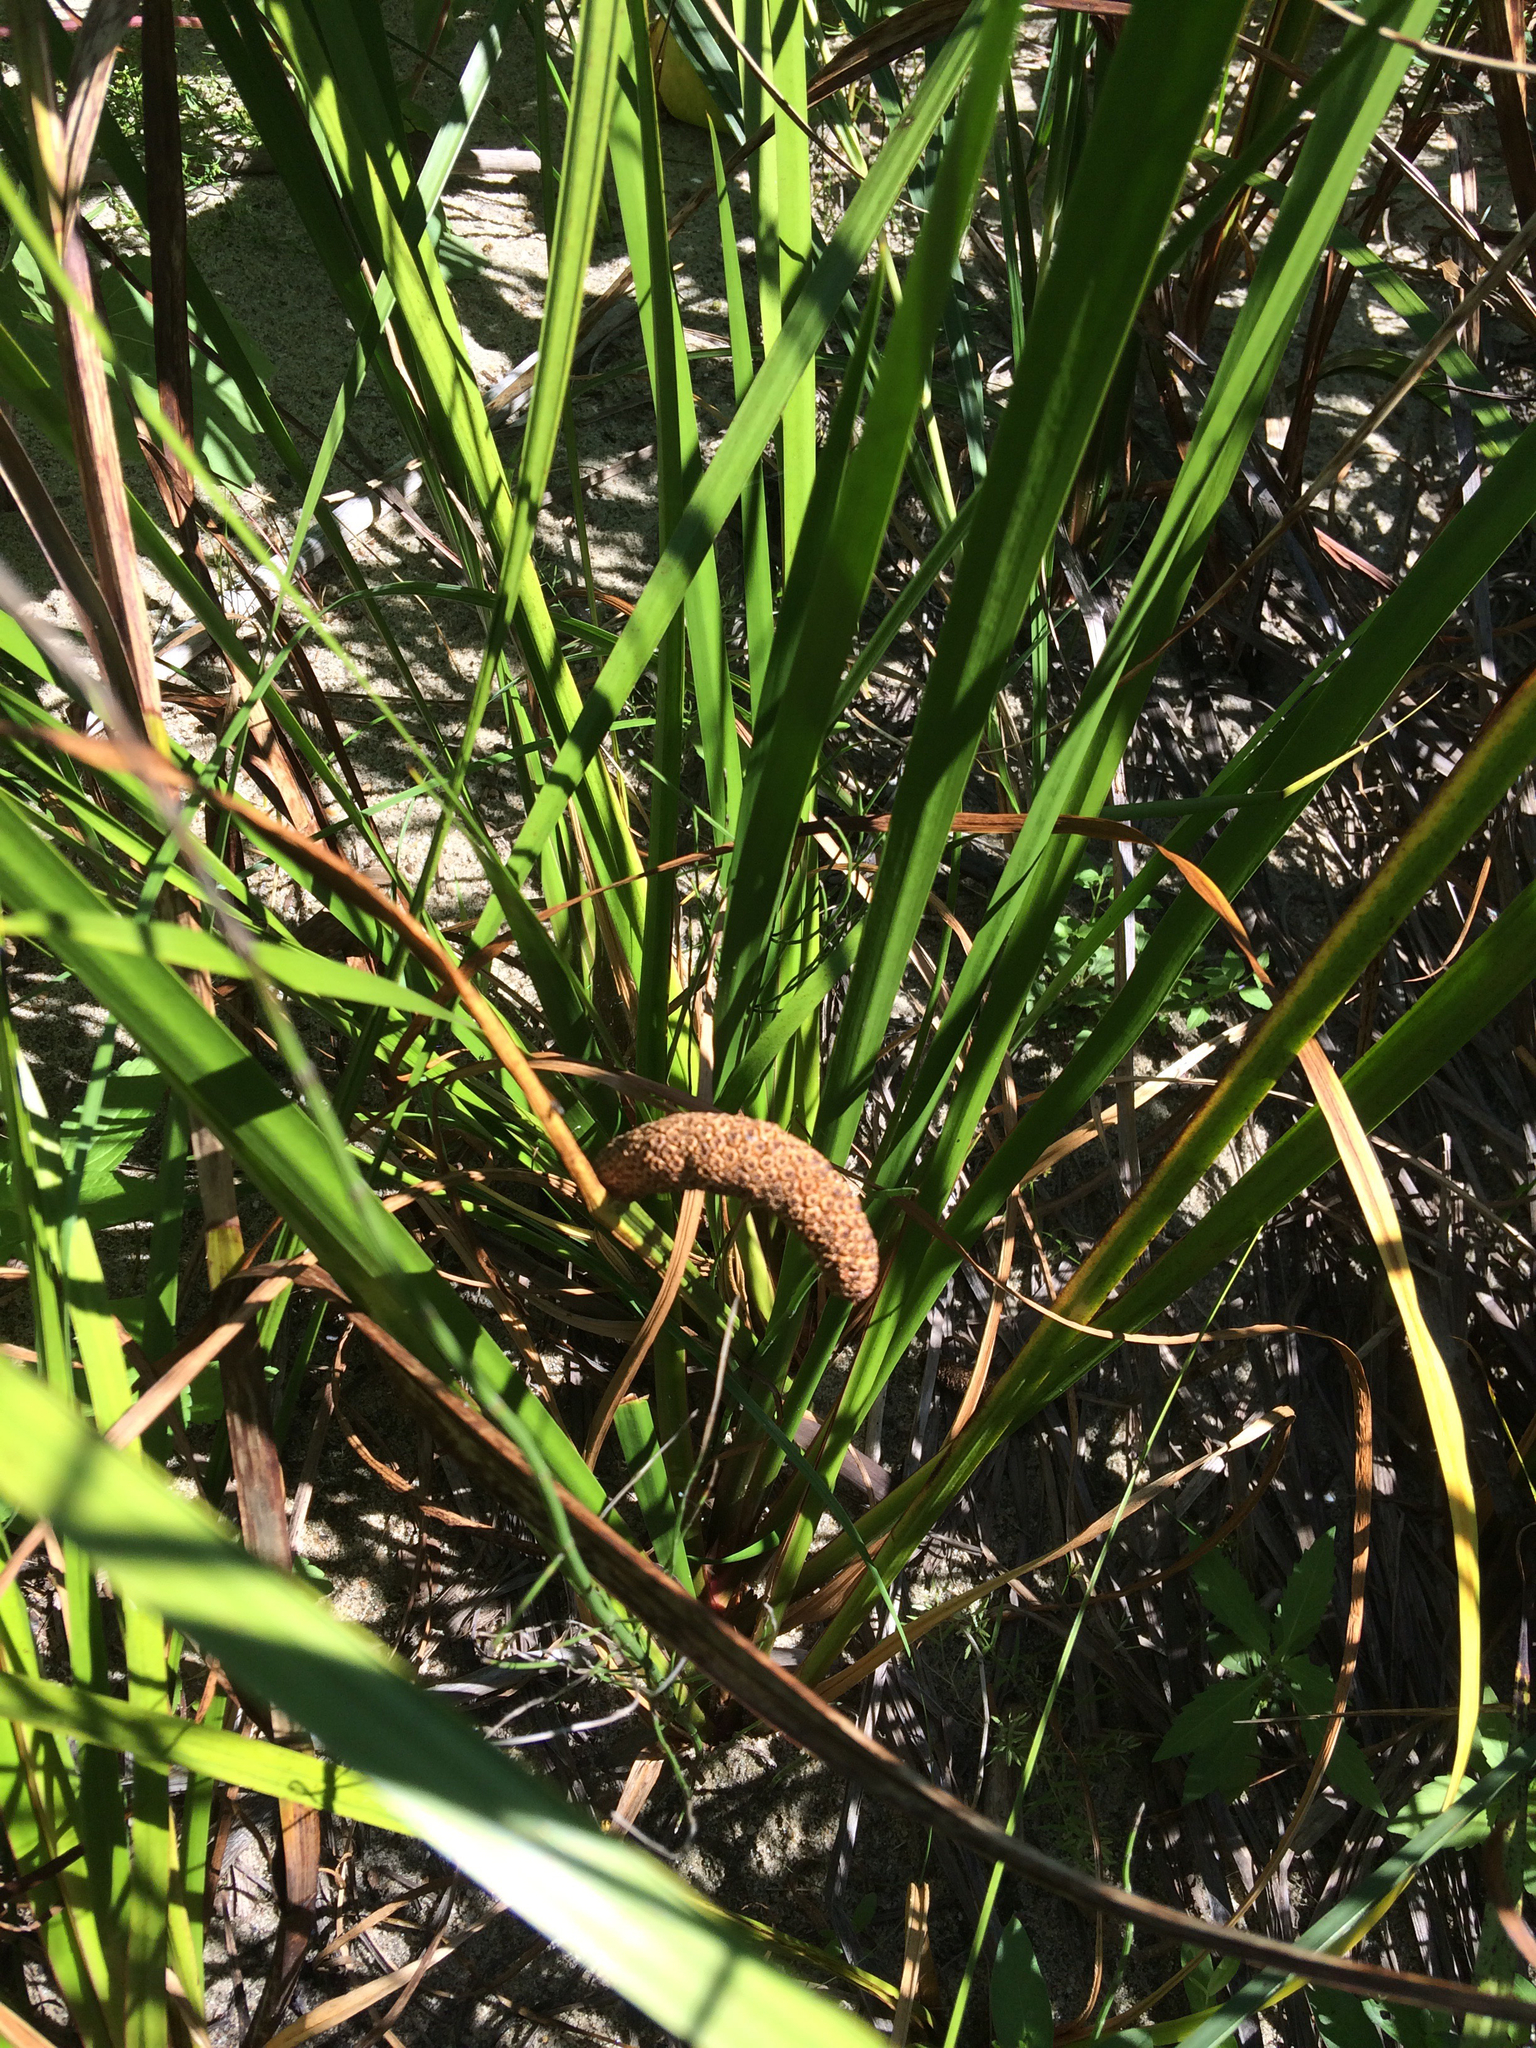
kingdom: Plantae
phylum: Tracheophyta
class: Liliopsida
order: Acorales
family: Acoraceae
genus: Acorus
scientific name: Acorus calamus
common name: Sweet-flag
